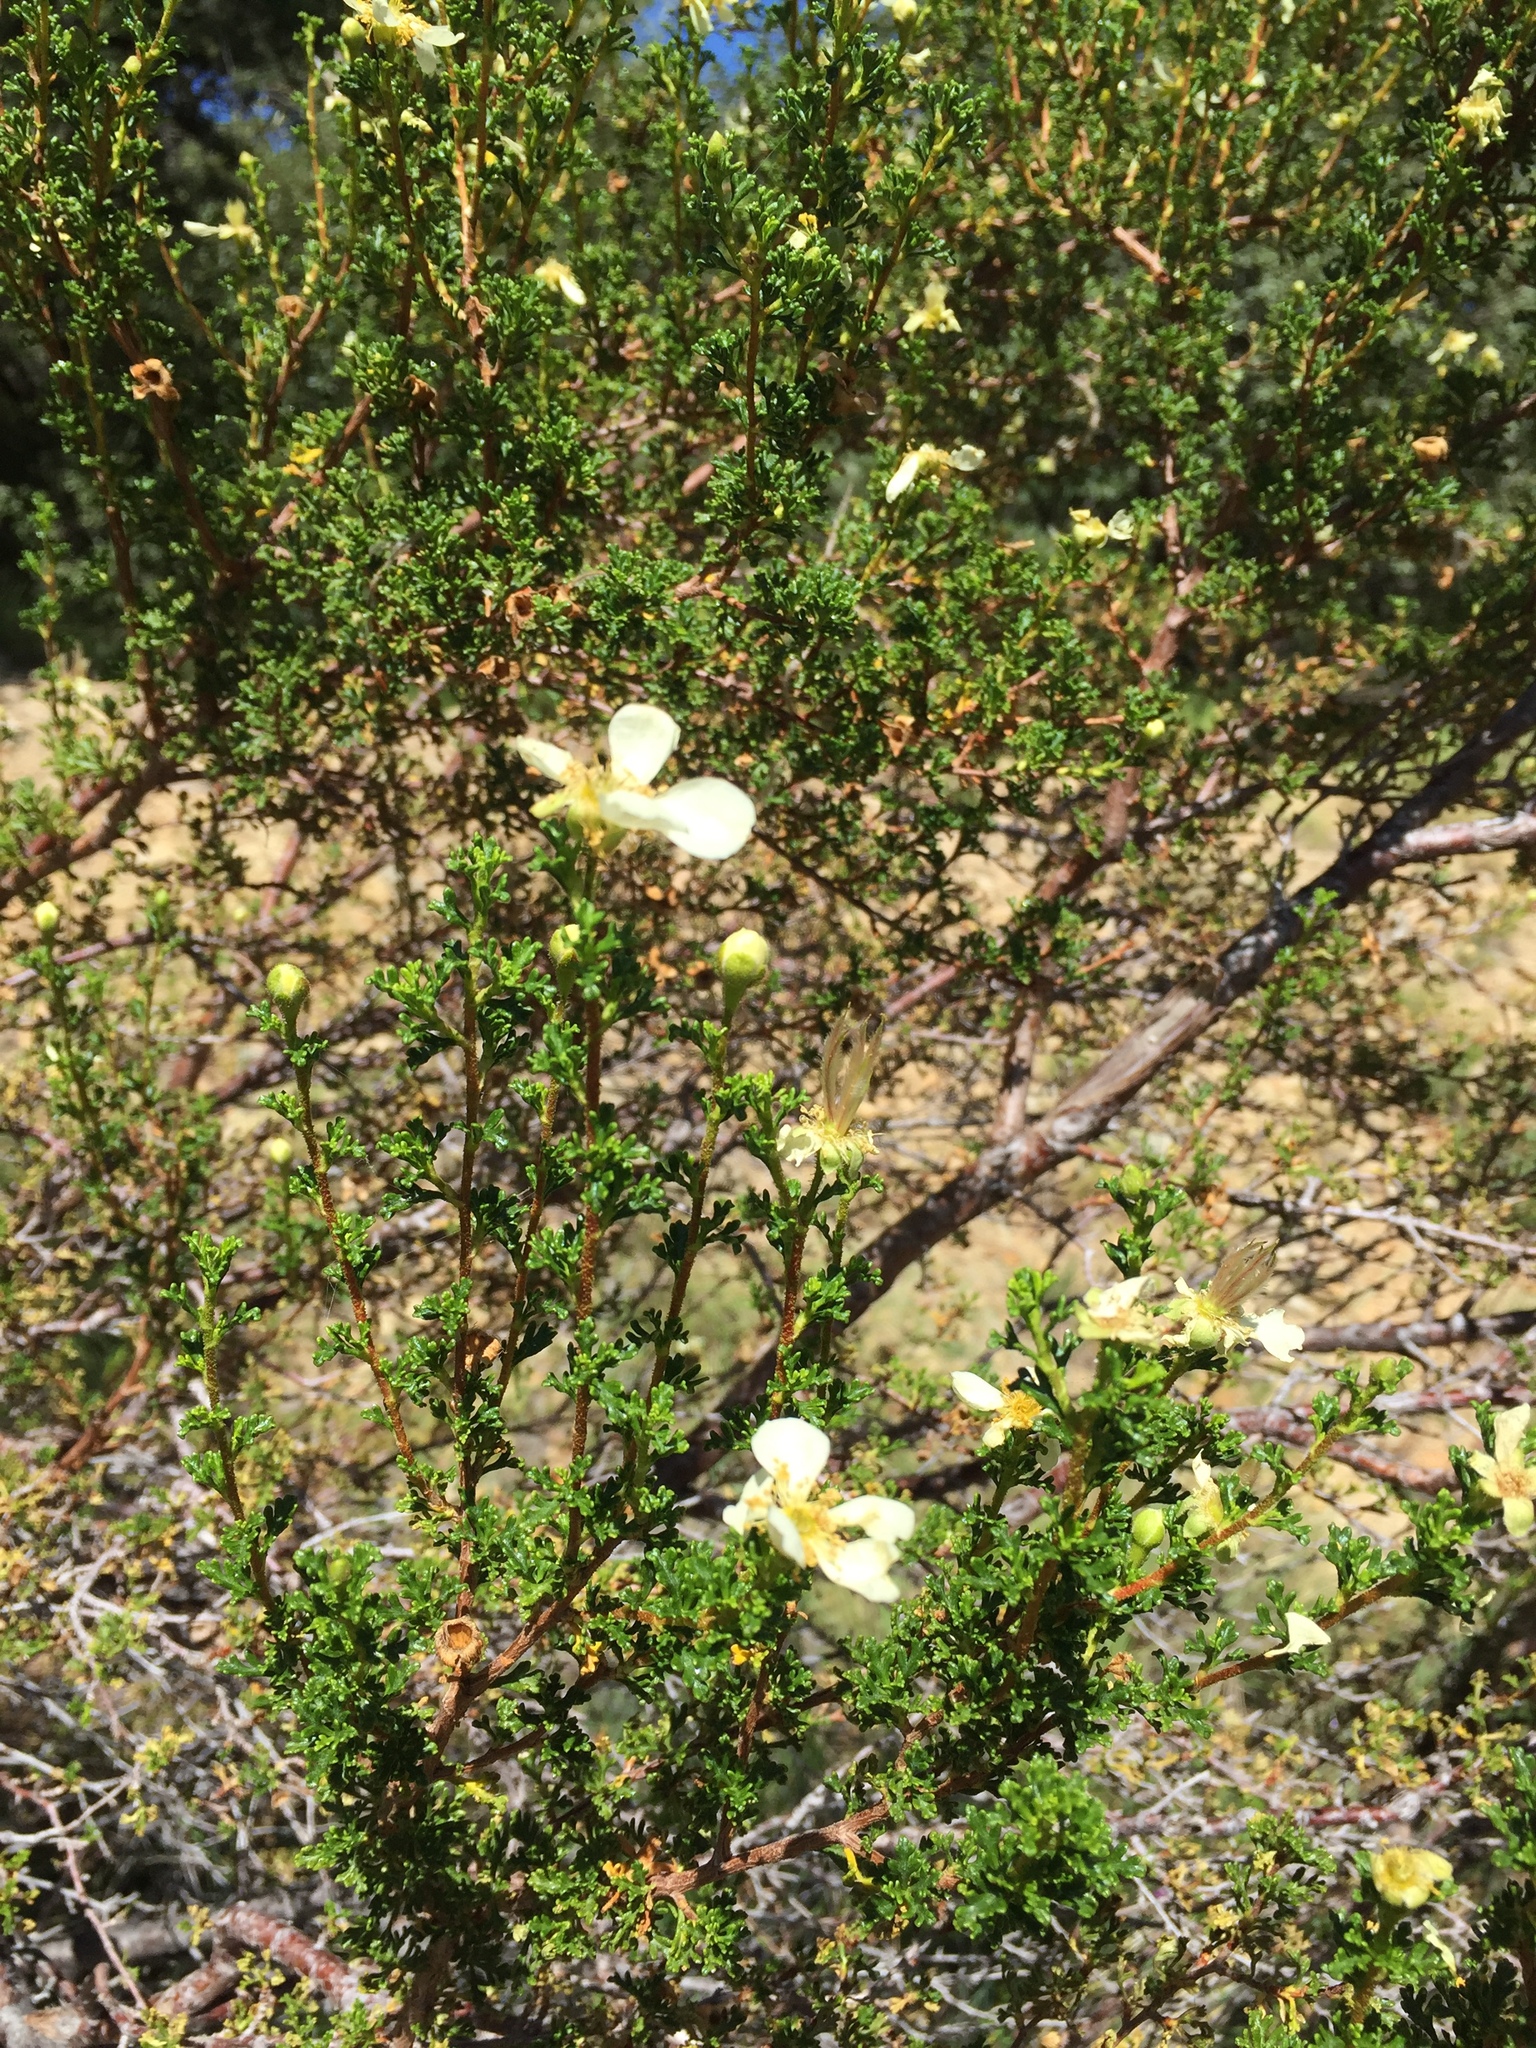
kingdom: Plantae
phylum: Tracheophyta
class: Magnoliopsida
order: Rosales
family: Rosaceae
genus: Purshia
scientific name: Purshia stansburiana
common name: Stansbury's cliffrose
